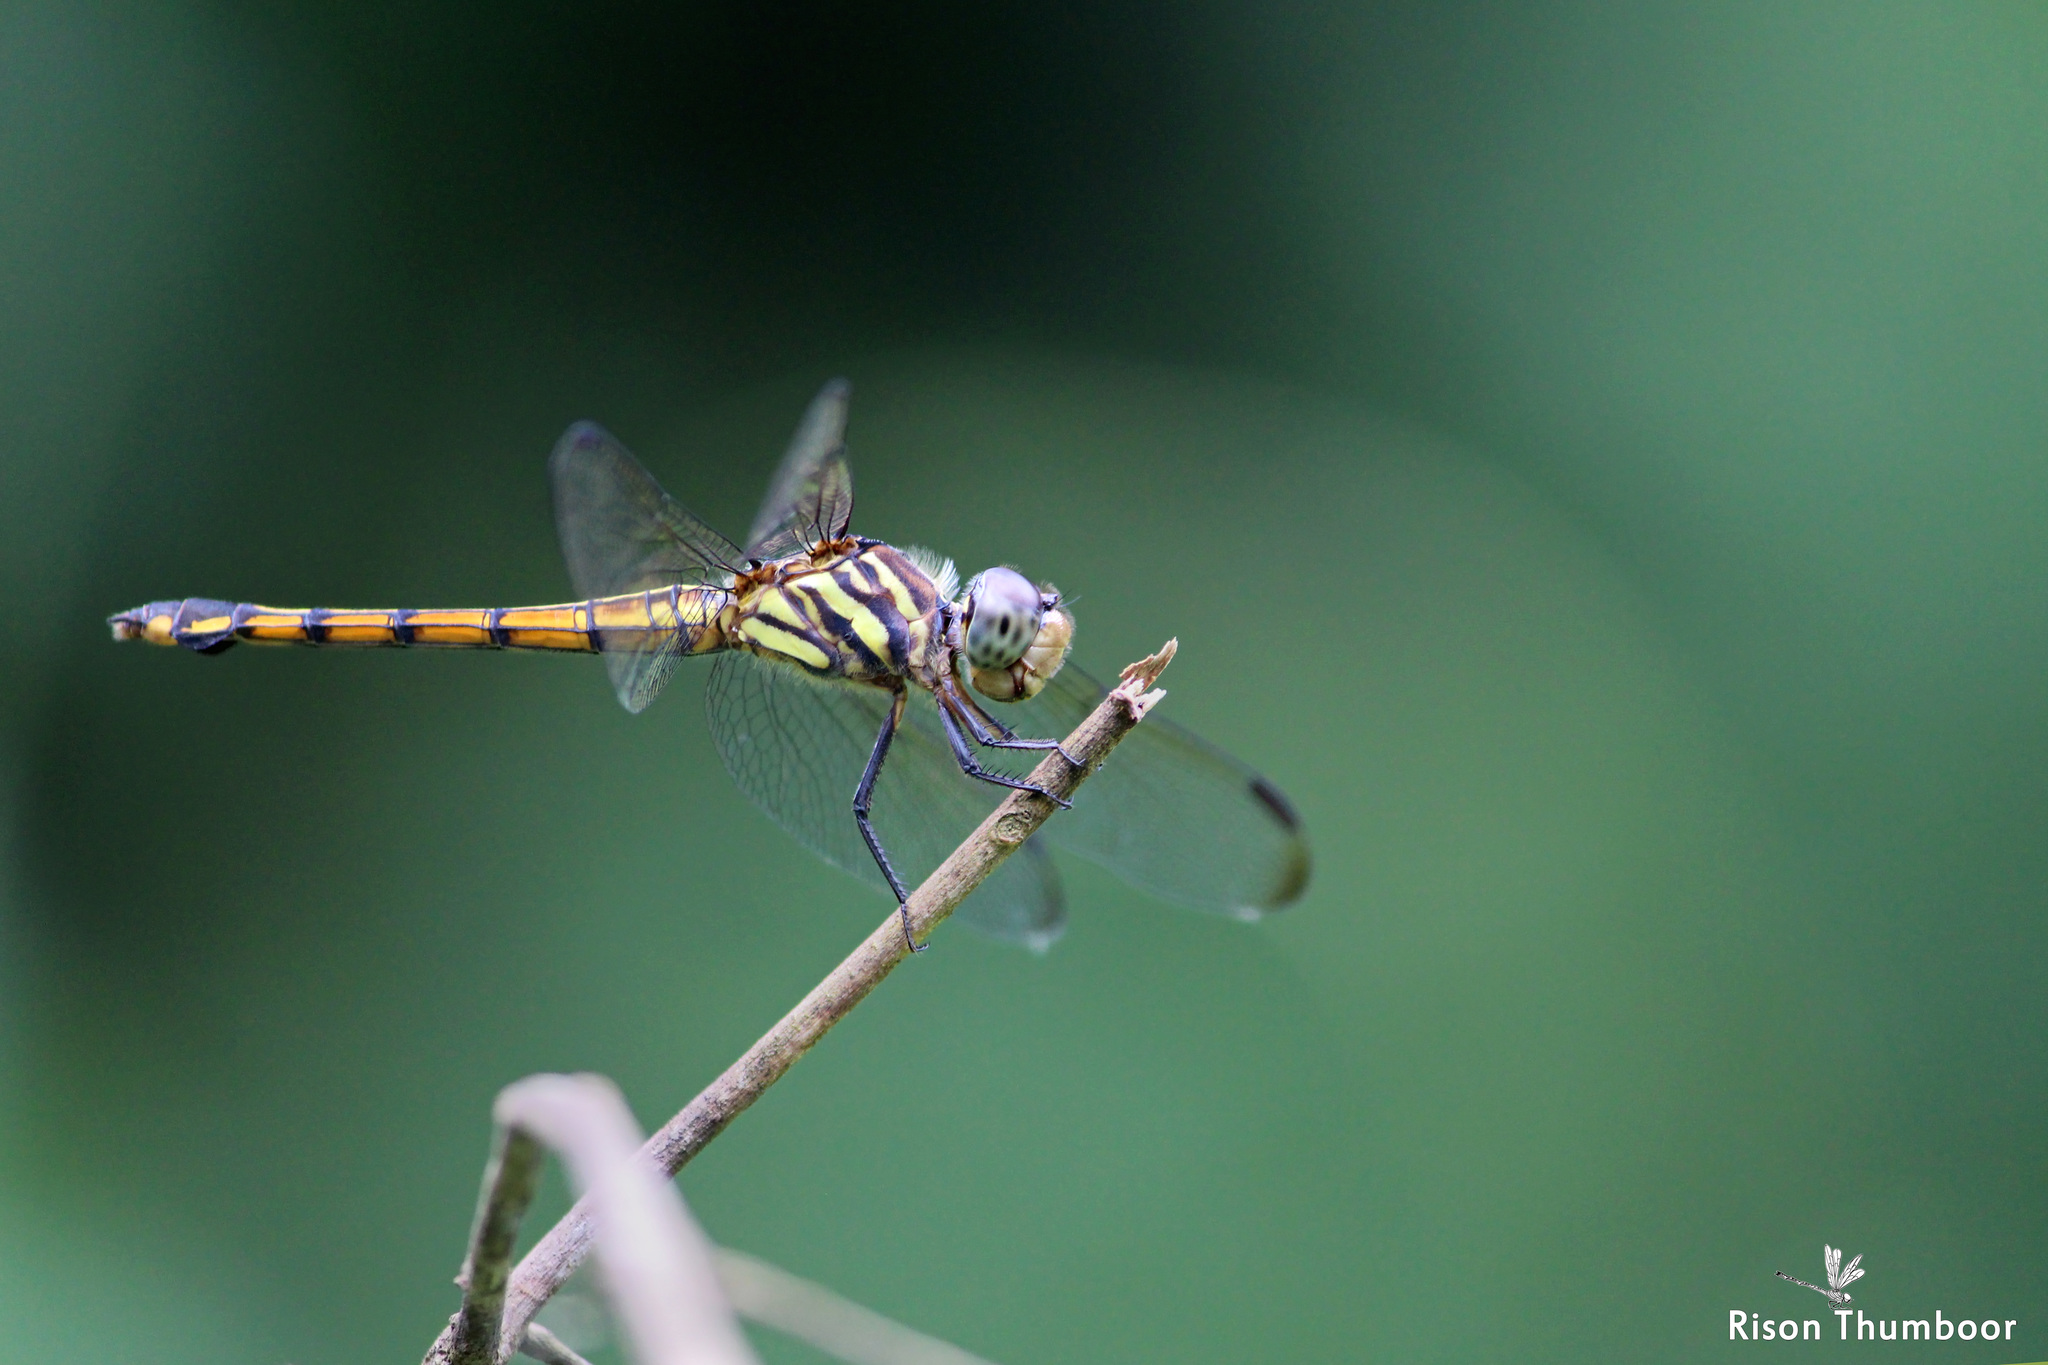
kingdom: Animalia
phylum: Arthropoda
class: Insecta
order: Odonata
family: Libellulidae
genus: Potamarcha
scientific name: Potamarcha congener
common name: Blue chaser
